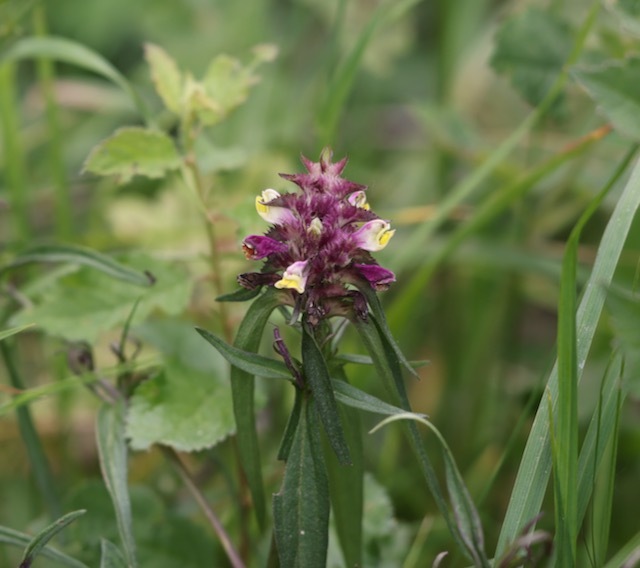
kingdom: Plantae
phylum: Tracheophyta
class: Magnoliopsida
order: Lamiales
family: Orobanchaceae
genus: Melampyrum
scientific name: Melampyrum cristatum
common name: Crested cow-wheat
